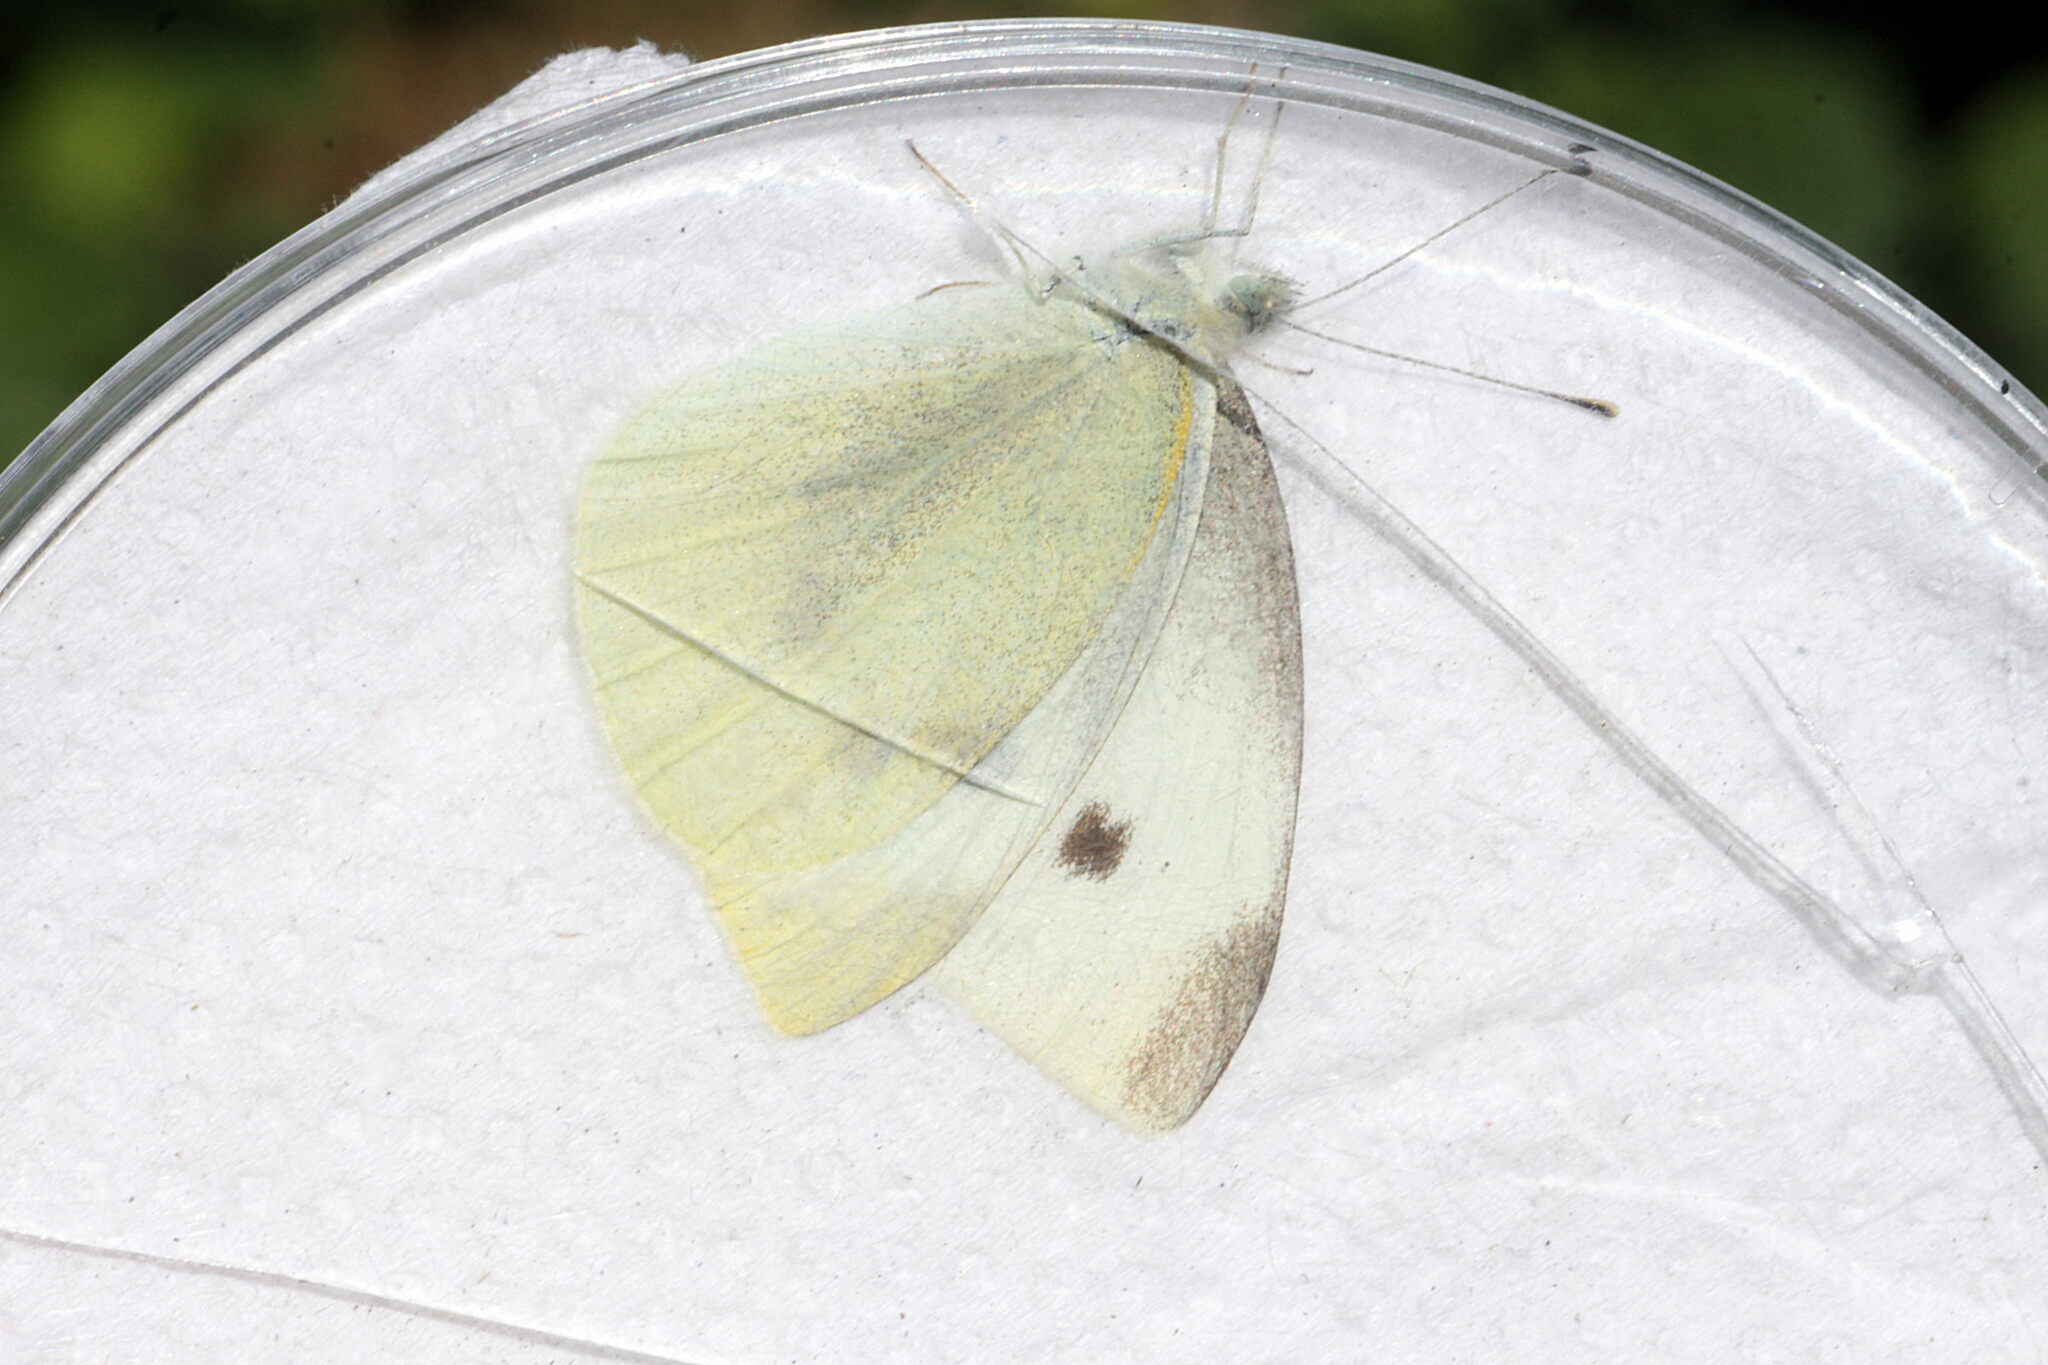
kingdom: Animalia
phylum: Arthropoda
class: Insecta
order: Lepidoptera
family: Pieridae
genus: Pieris
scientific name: Pieris rapae
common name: Small white
